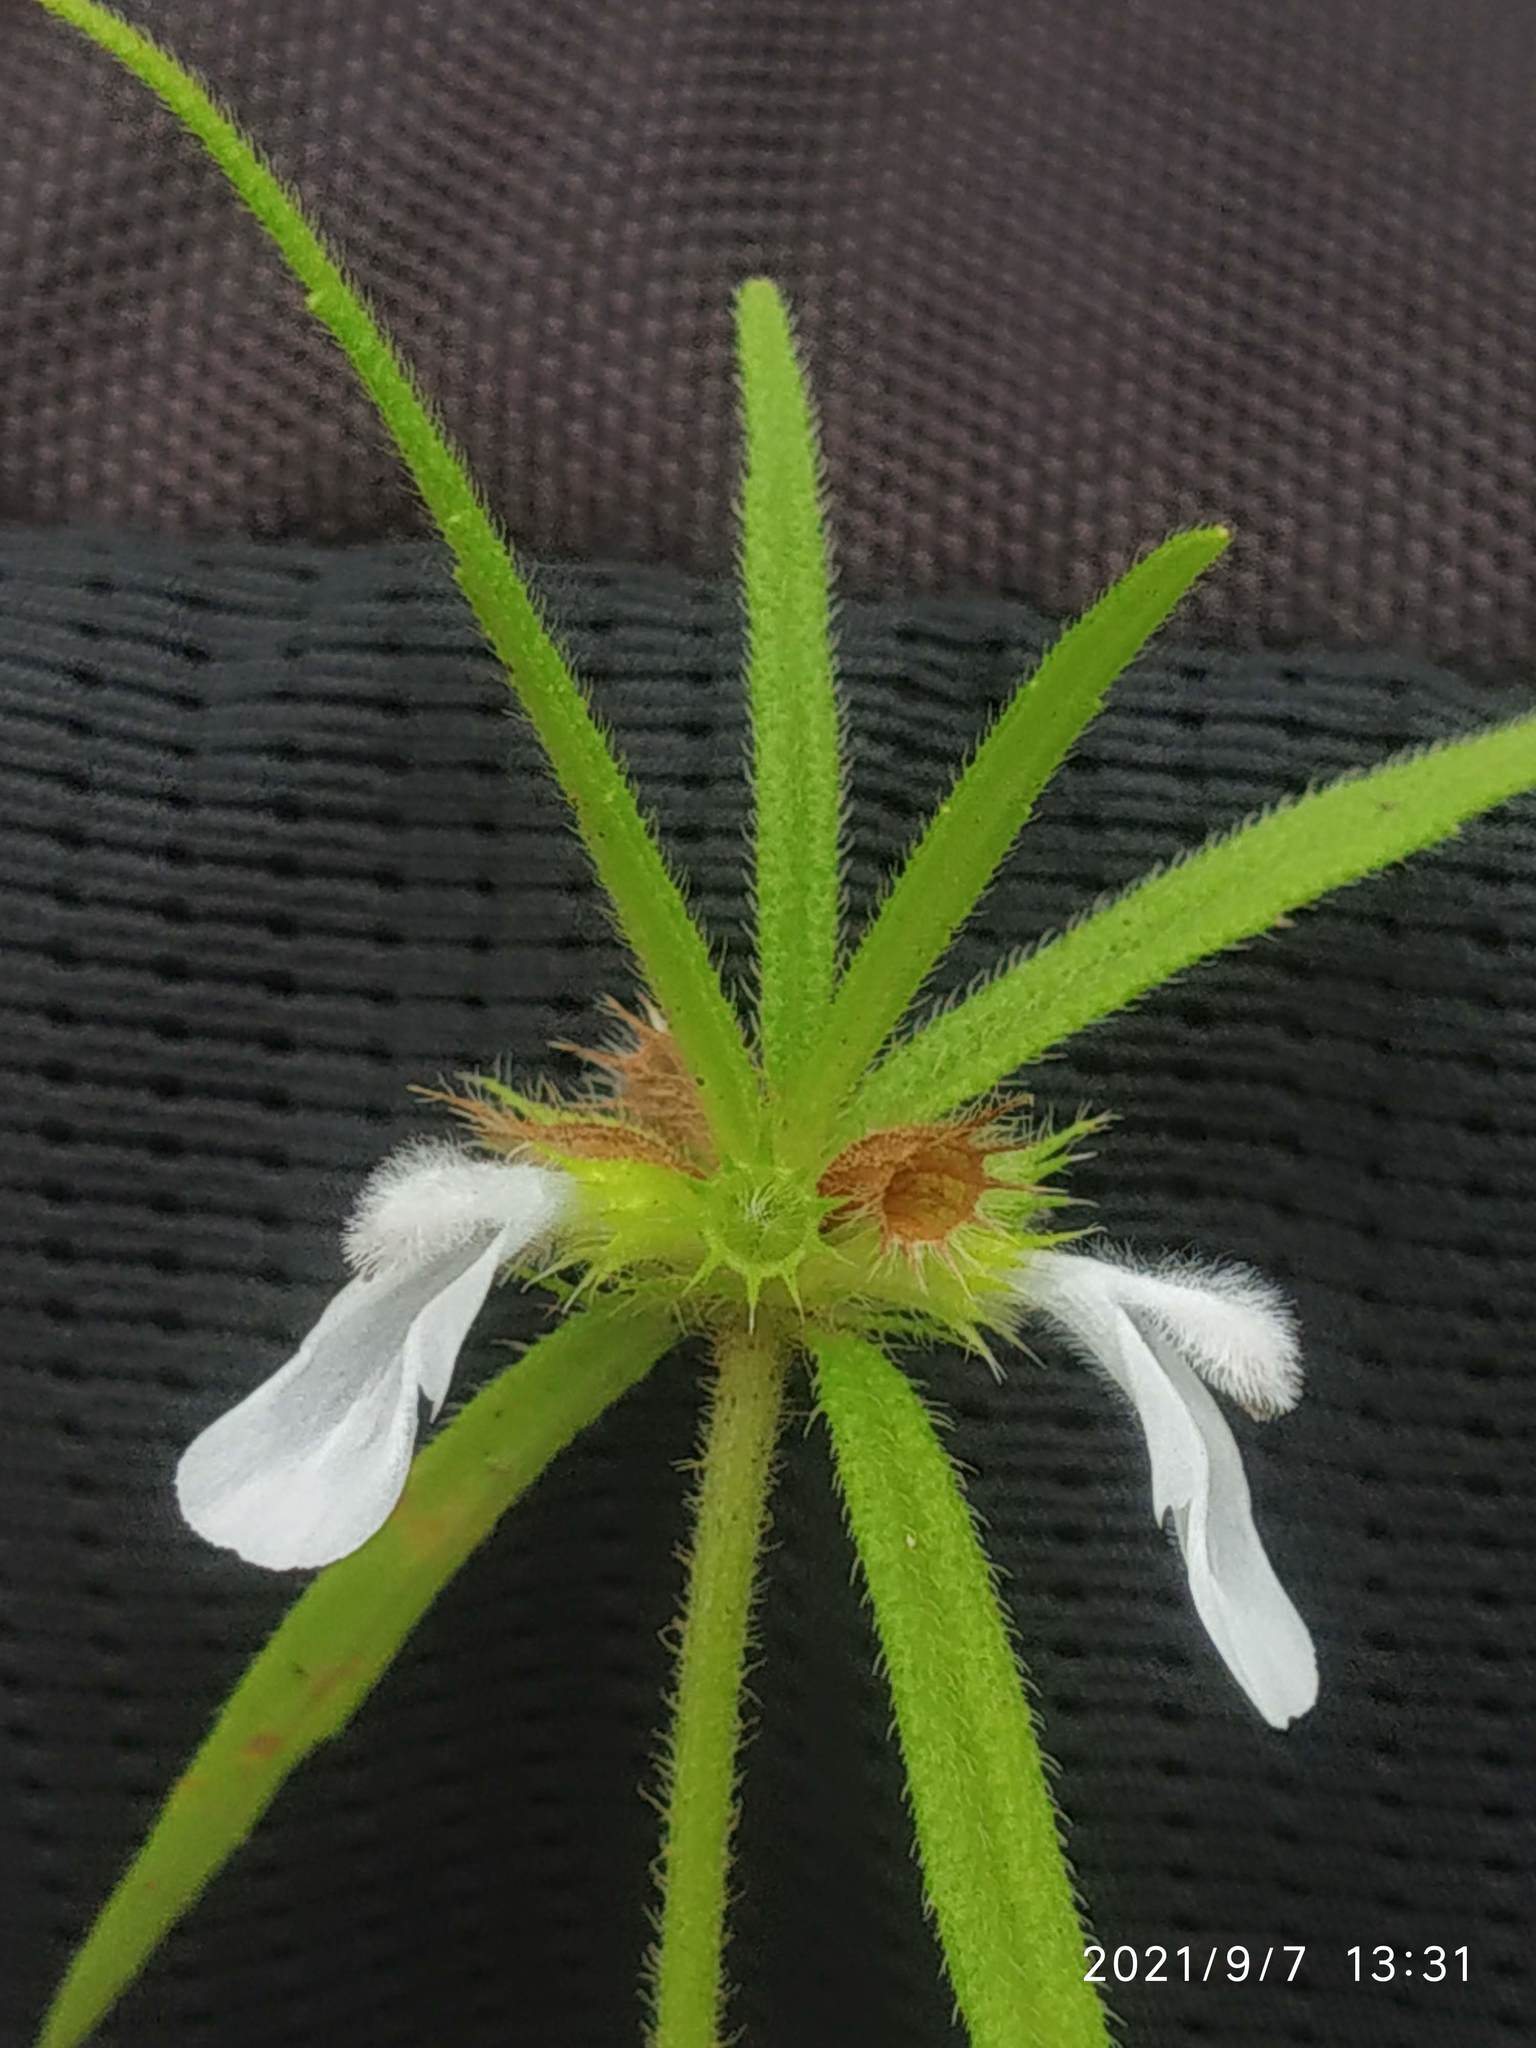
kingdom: Plantae
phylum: Tracheophyta
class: Magnoliopsida
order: Lamiales
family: Lamiaceae
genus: Leucas
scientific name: Leucas stricta
